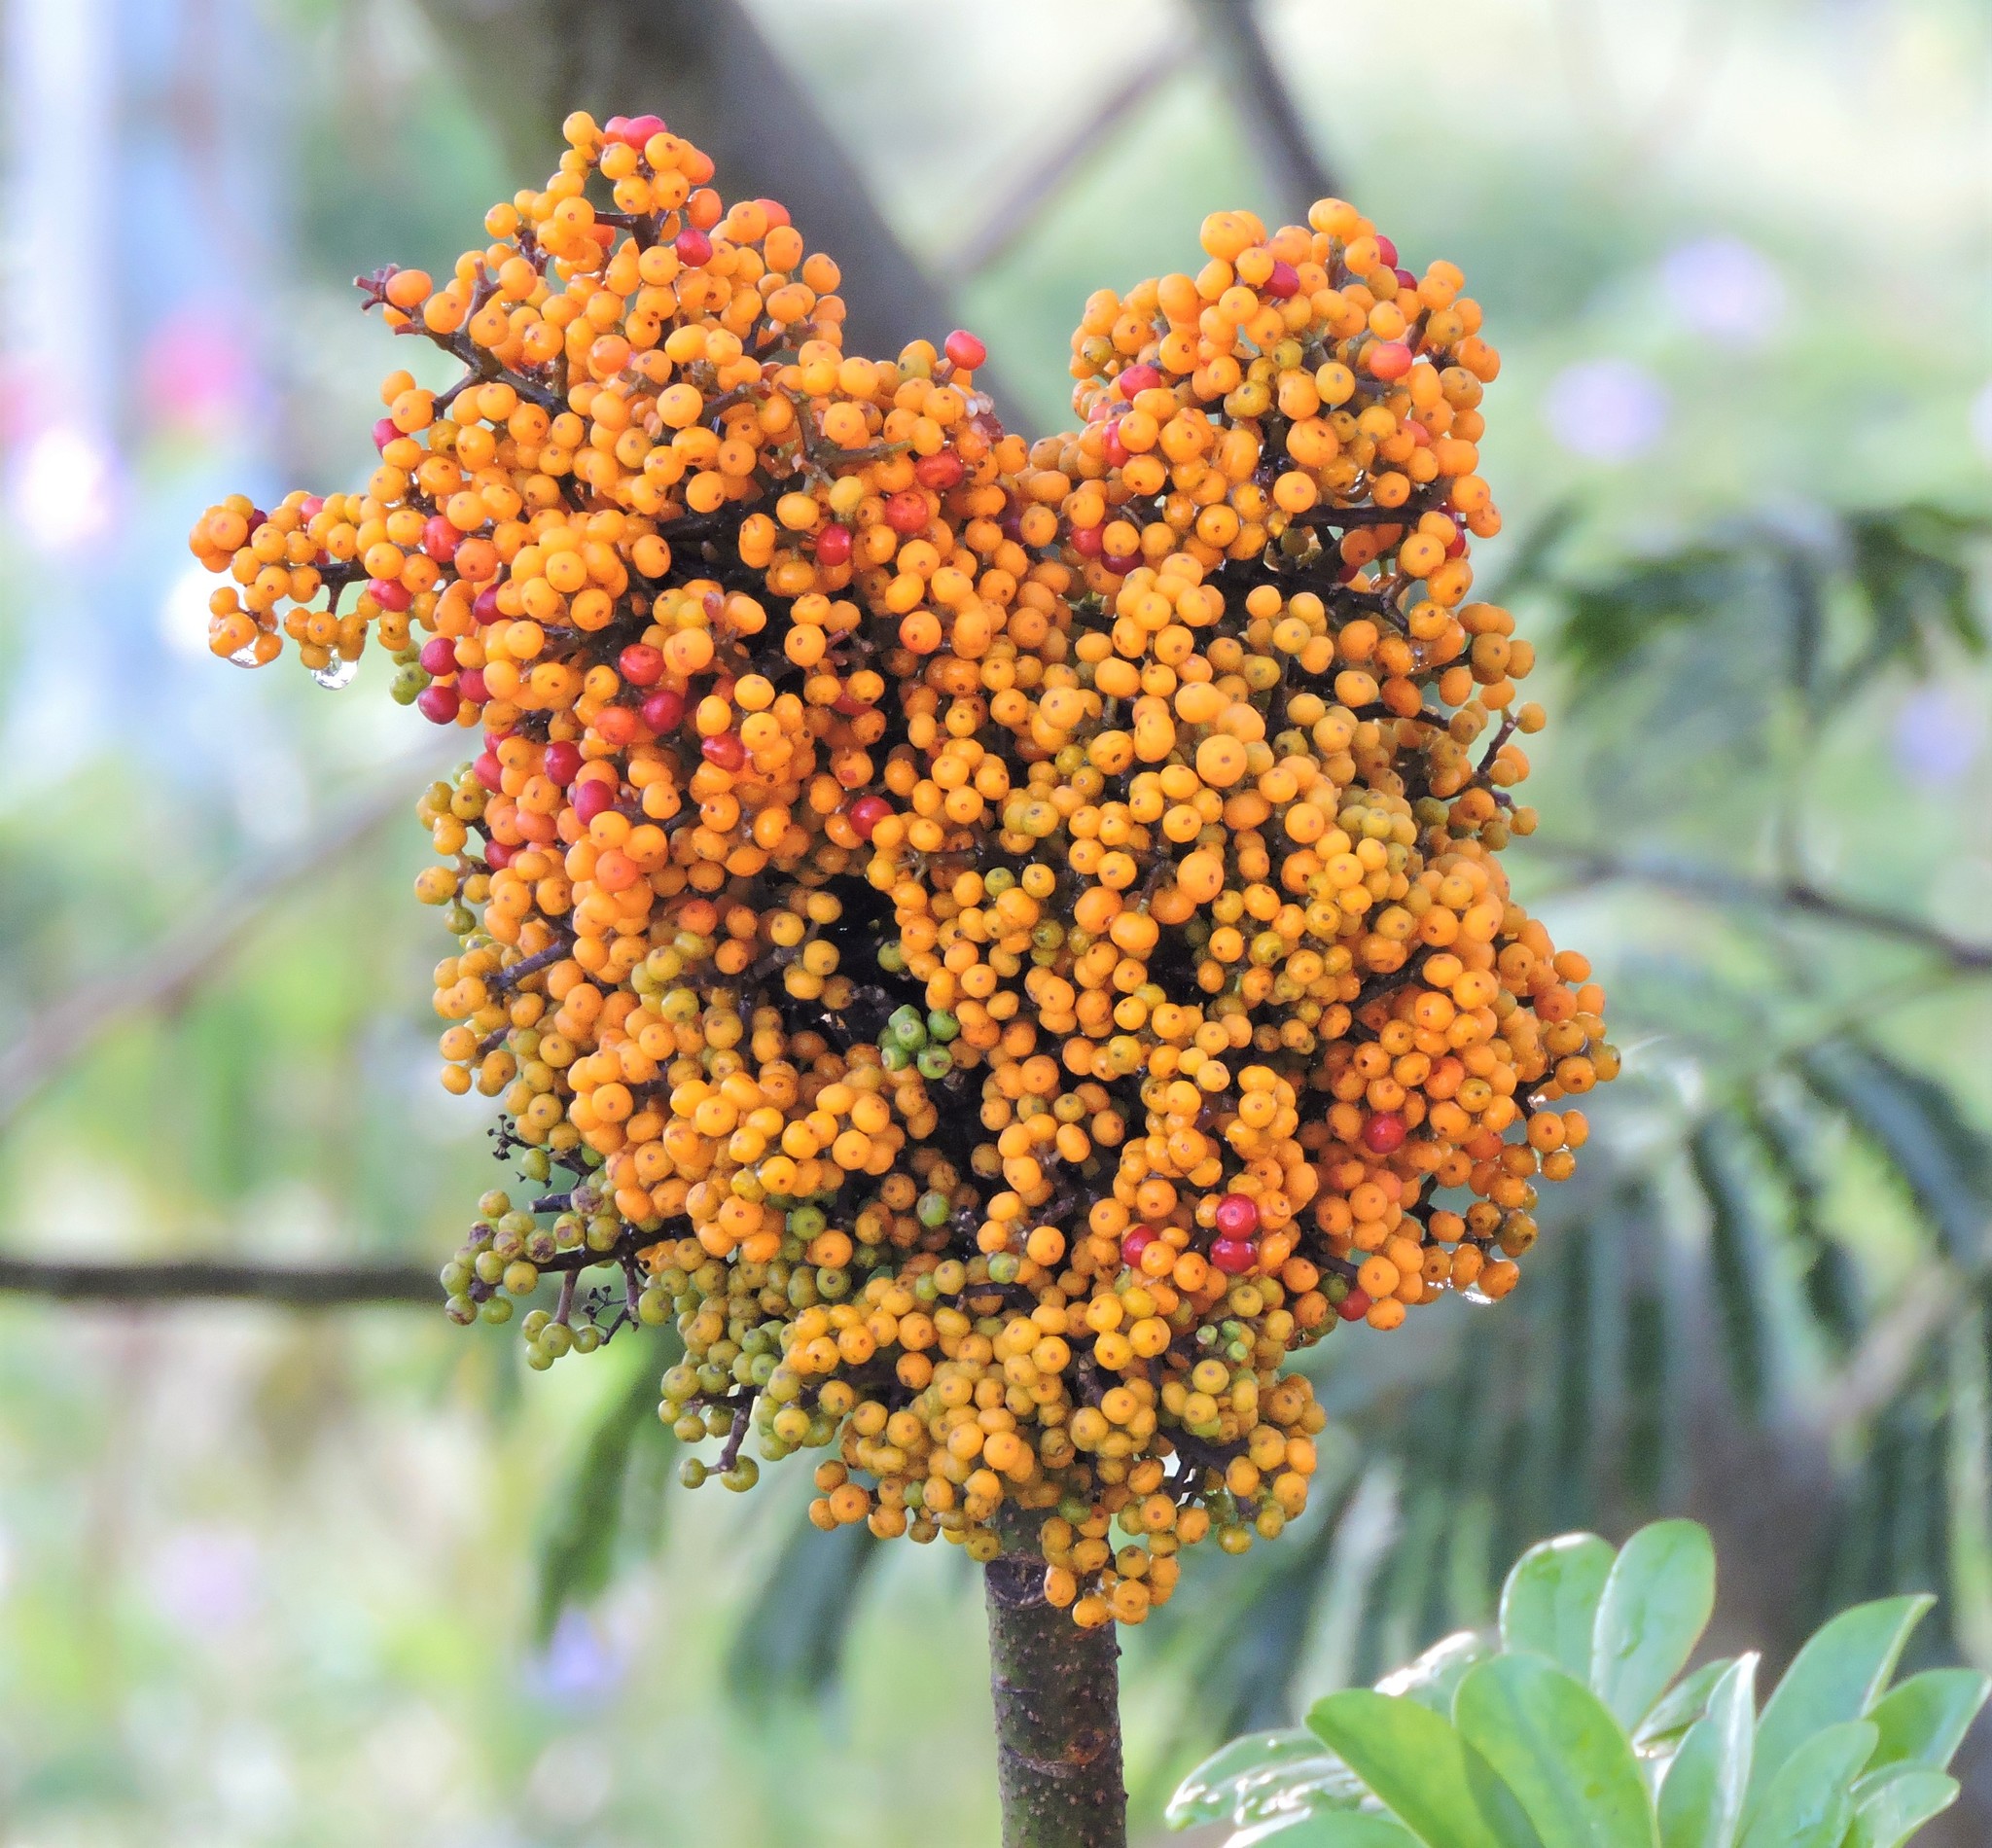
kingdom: Plantae
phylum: Tracheophyta
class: Magnoliopsida
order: Apiales
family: Araliaceae
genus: Heptapleurum
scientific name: Heptapleurum arboricola
